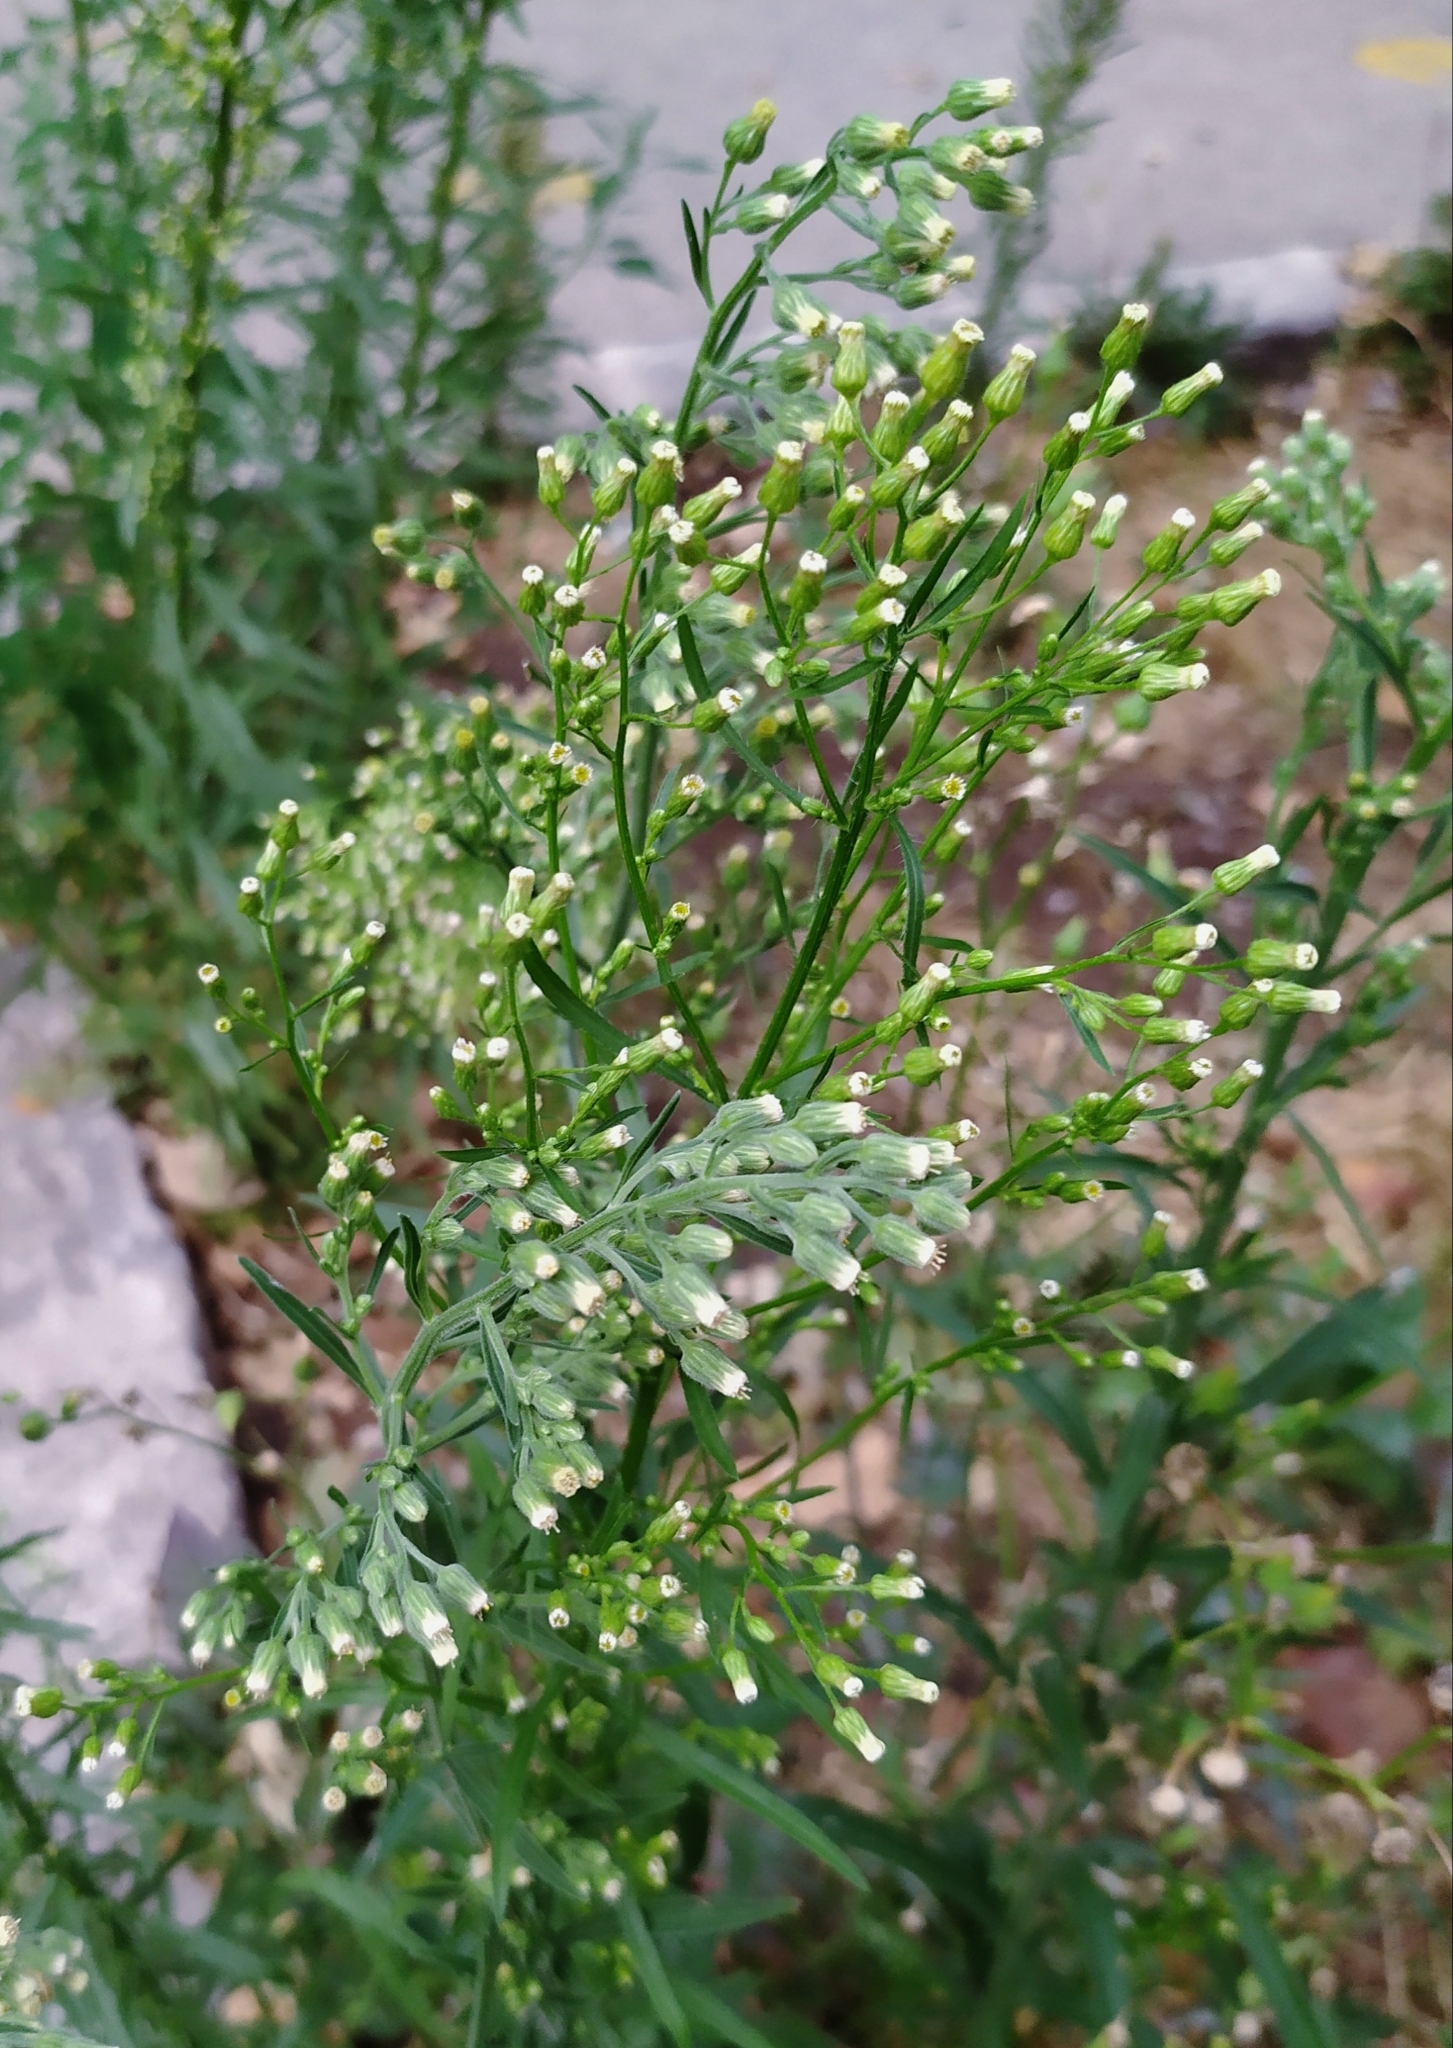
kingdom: Plantae
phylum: Tracheophyta
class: Magnoliopsida
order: Asterales
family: Asteraceae
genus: Erigeron
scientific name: Erigeron sumatrensis
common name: Daisy
